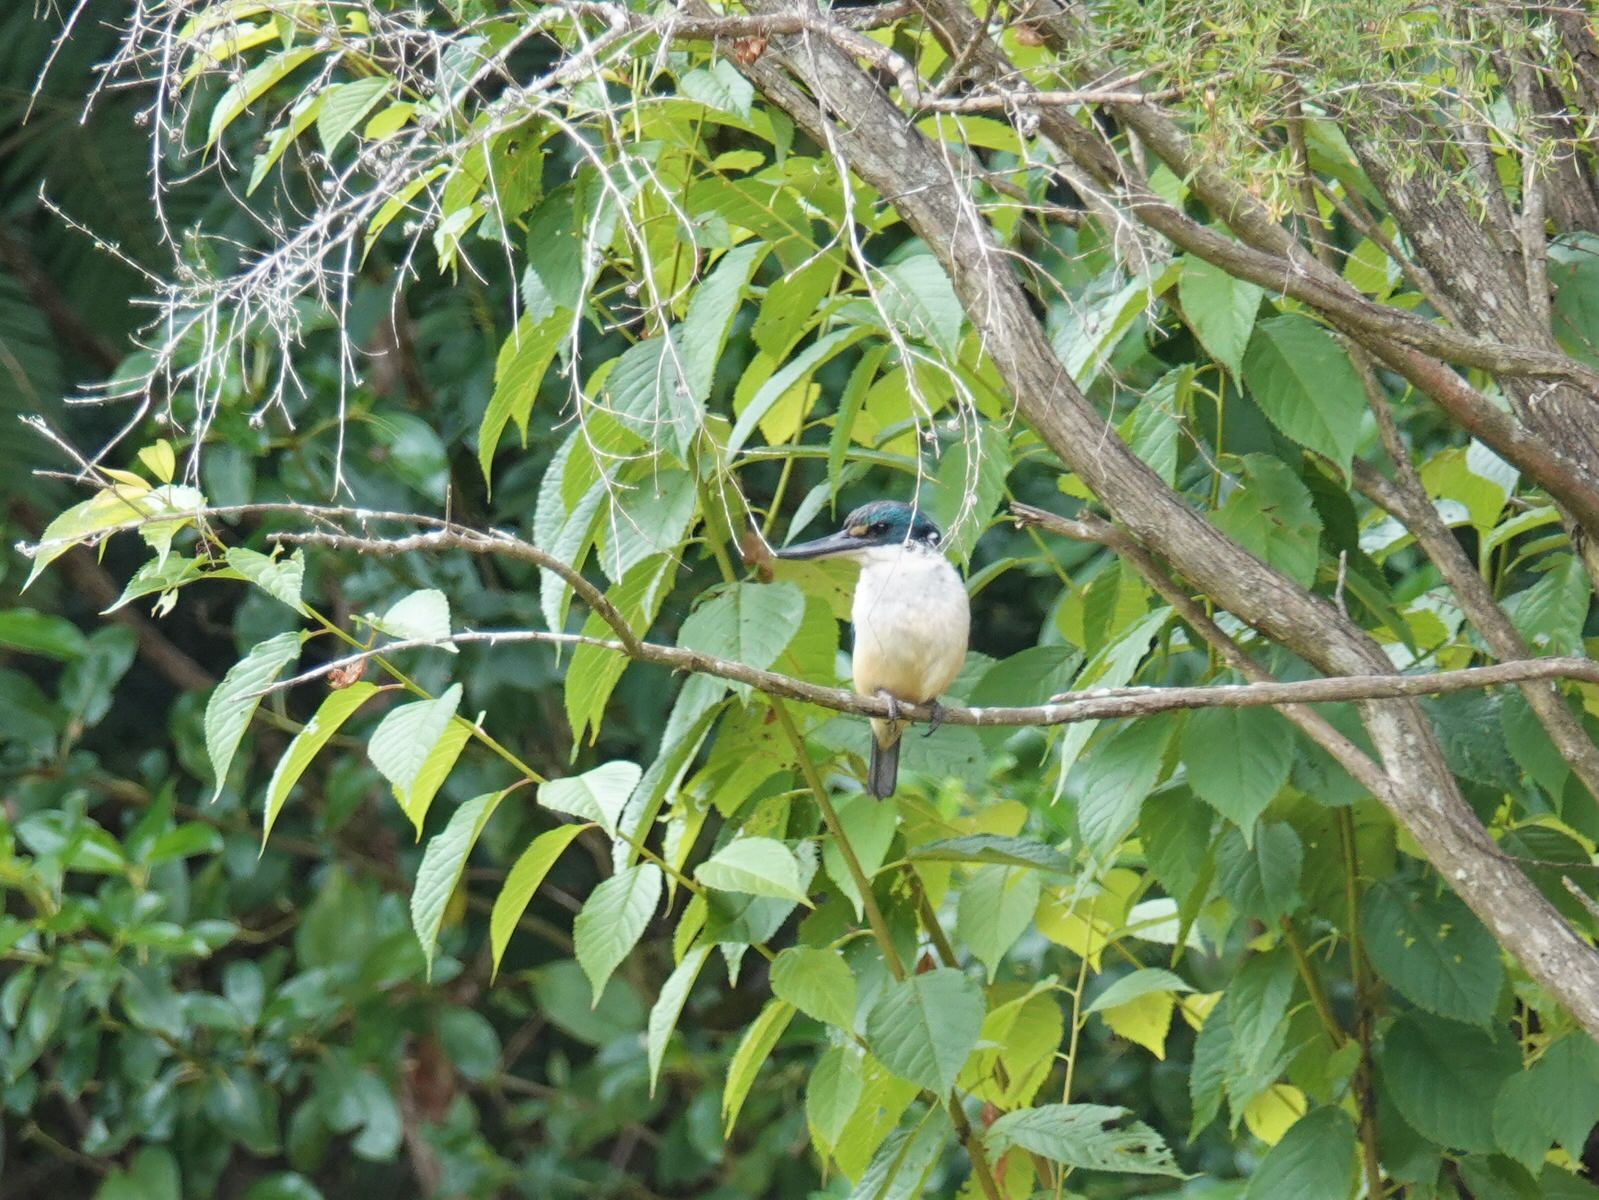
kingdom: Animalia
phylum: Chordata
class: Aves
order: Coraciiformes
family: Alcedinidae
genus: Todiramphus
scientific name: Todiramphus sanctus
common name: Sacred kingfisher
